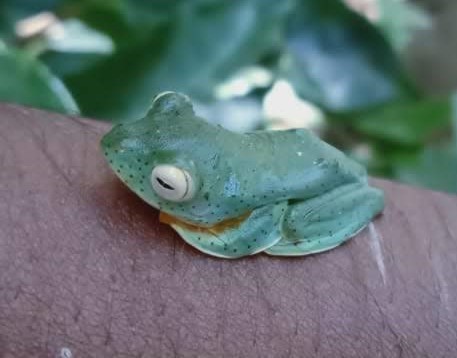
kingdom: Animalia
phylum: Chordata
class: Amphibia
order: Anura
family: Rhacophoridae
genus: Rhacophorus
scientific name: Rhacophorus malabaricus
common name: Malabar gliding frog
